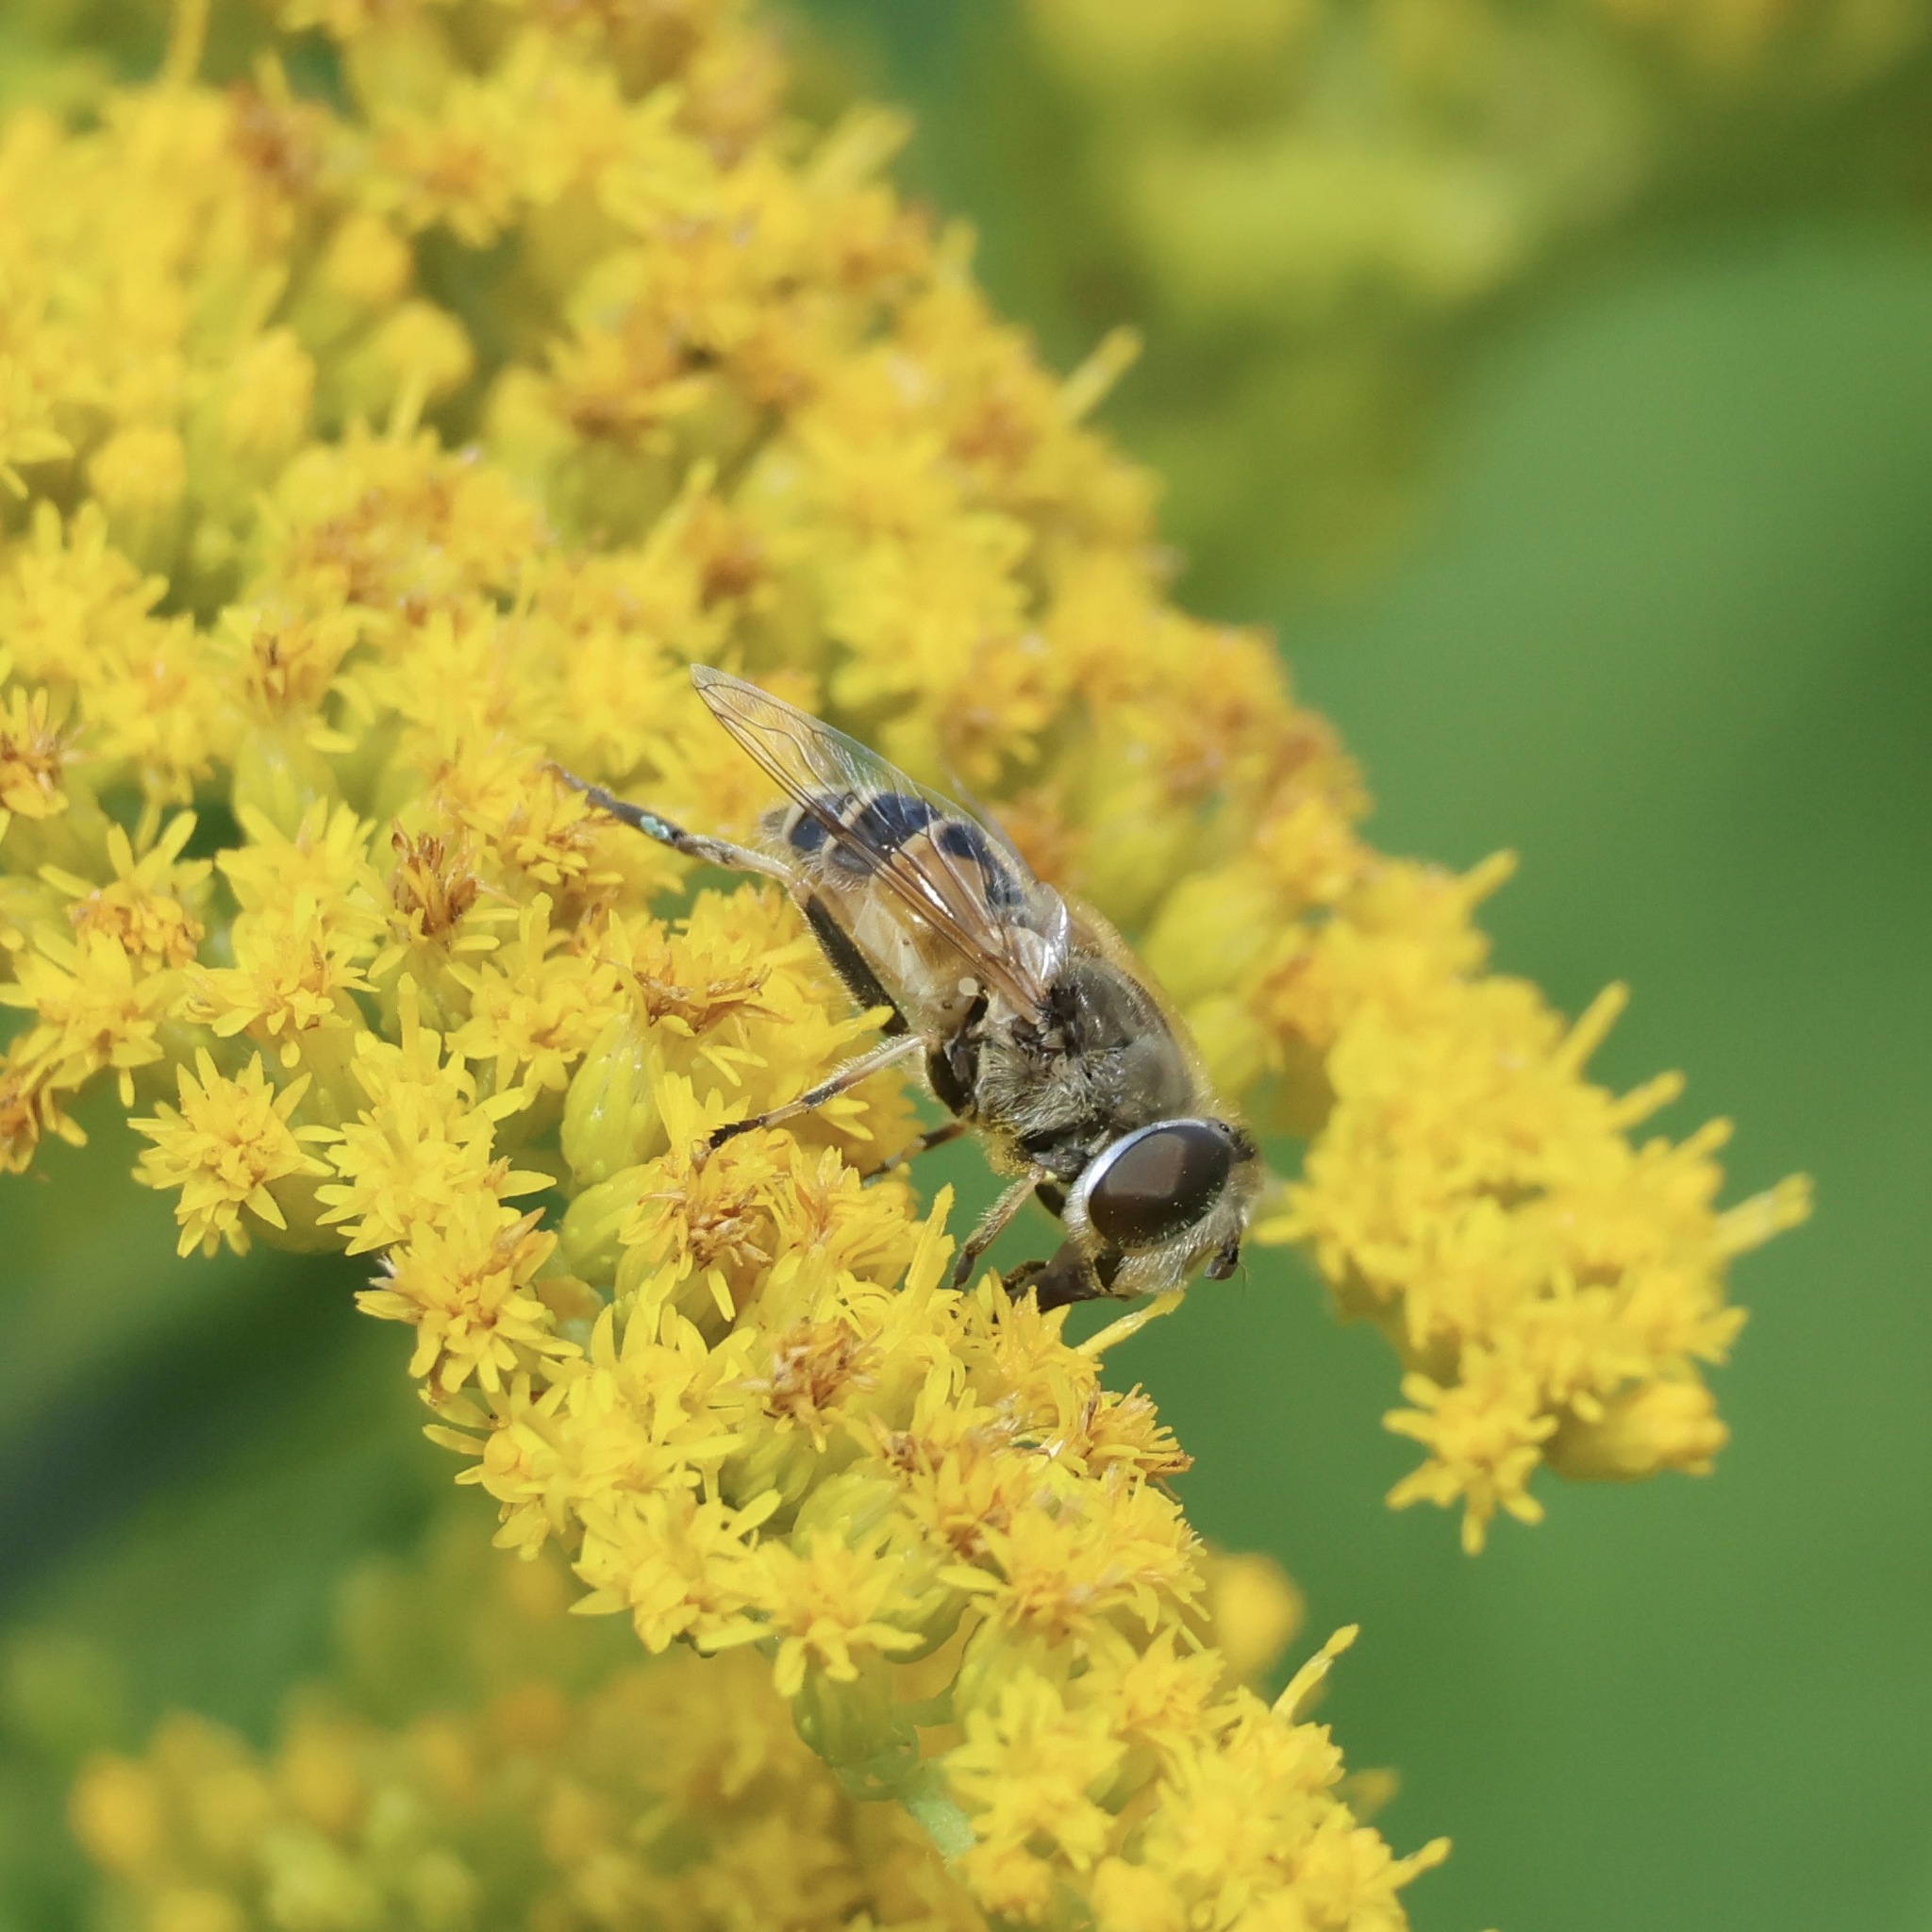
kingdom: Animalia
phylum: Arthropoda
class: Insecta
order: Diptera
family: Syrphidae
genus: Eristalis
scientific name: Eristalis arbustorum
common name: Hover fly
